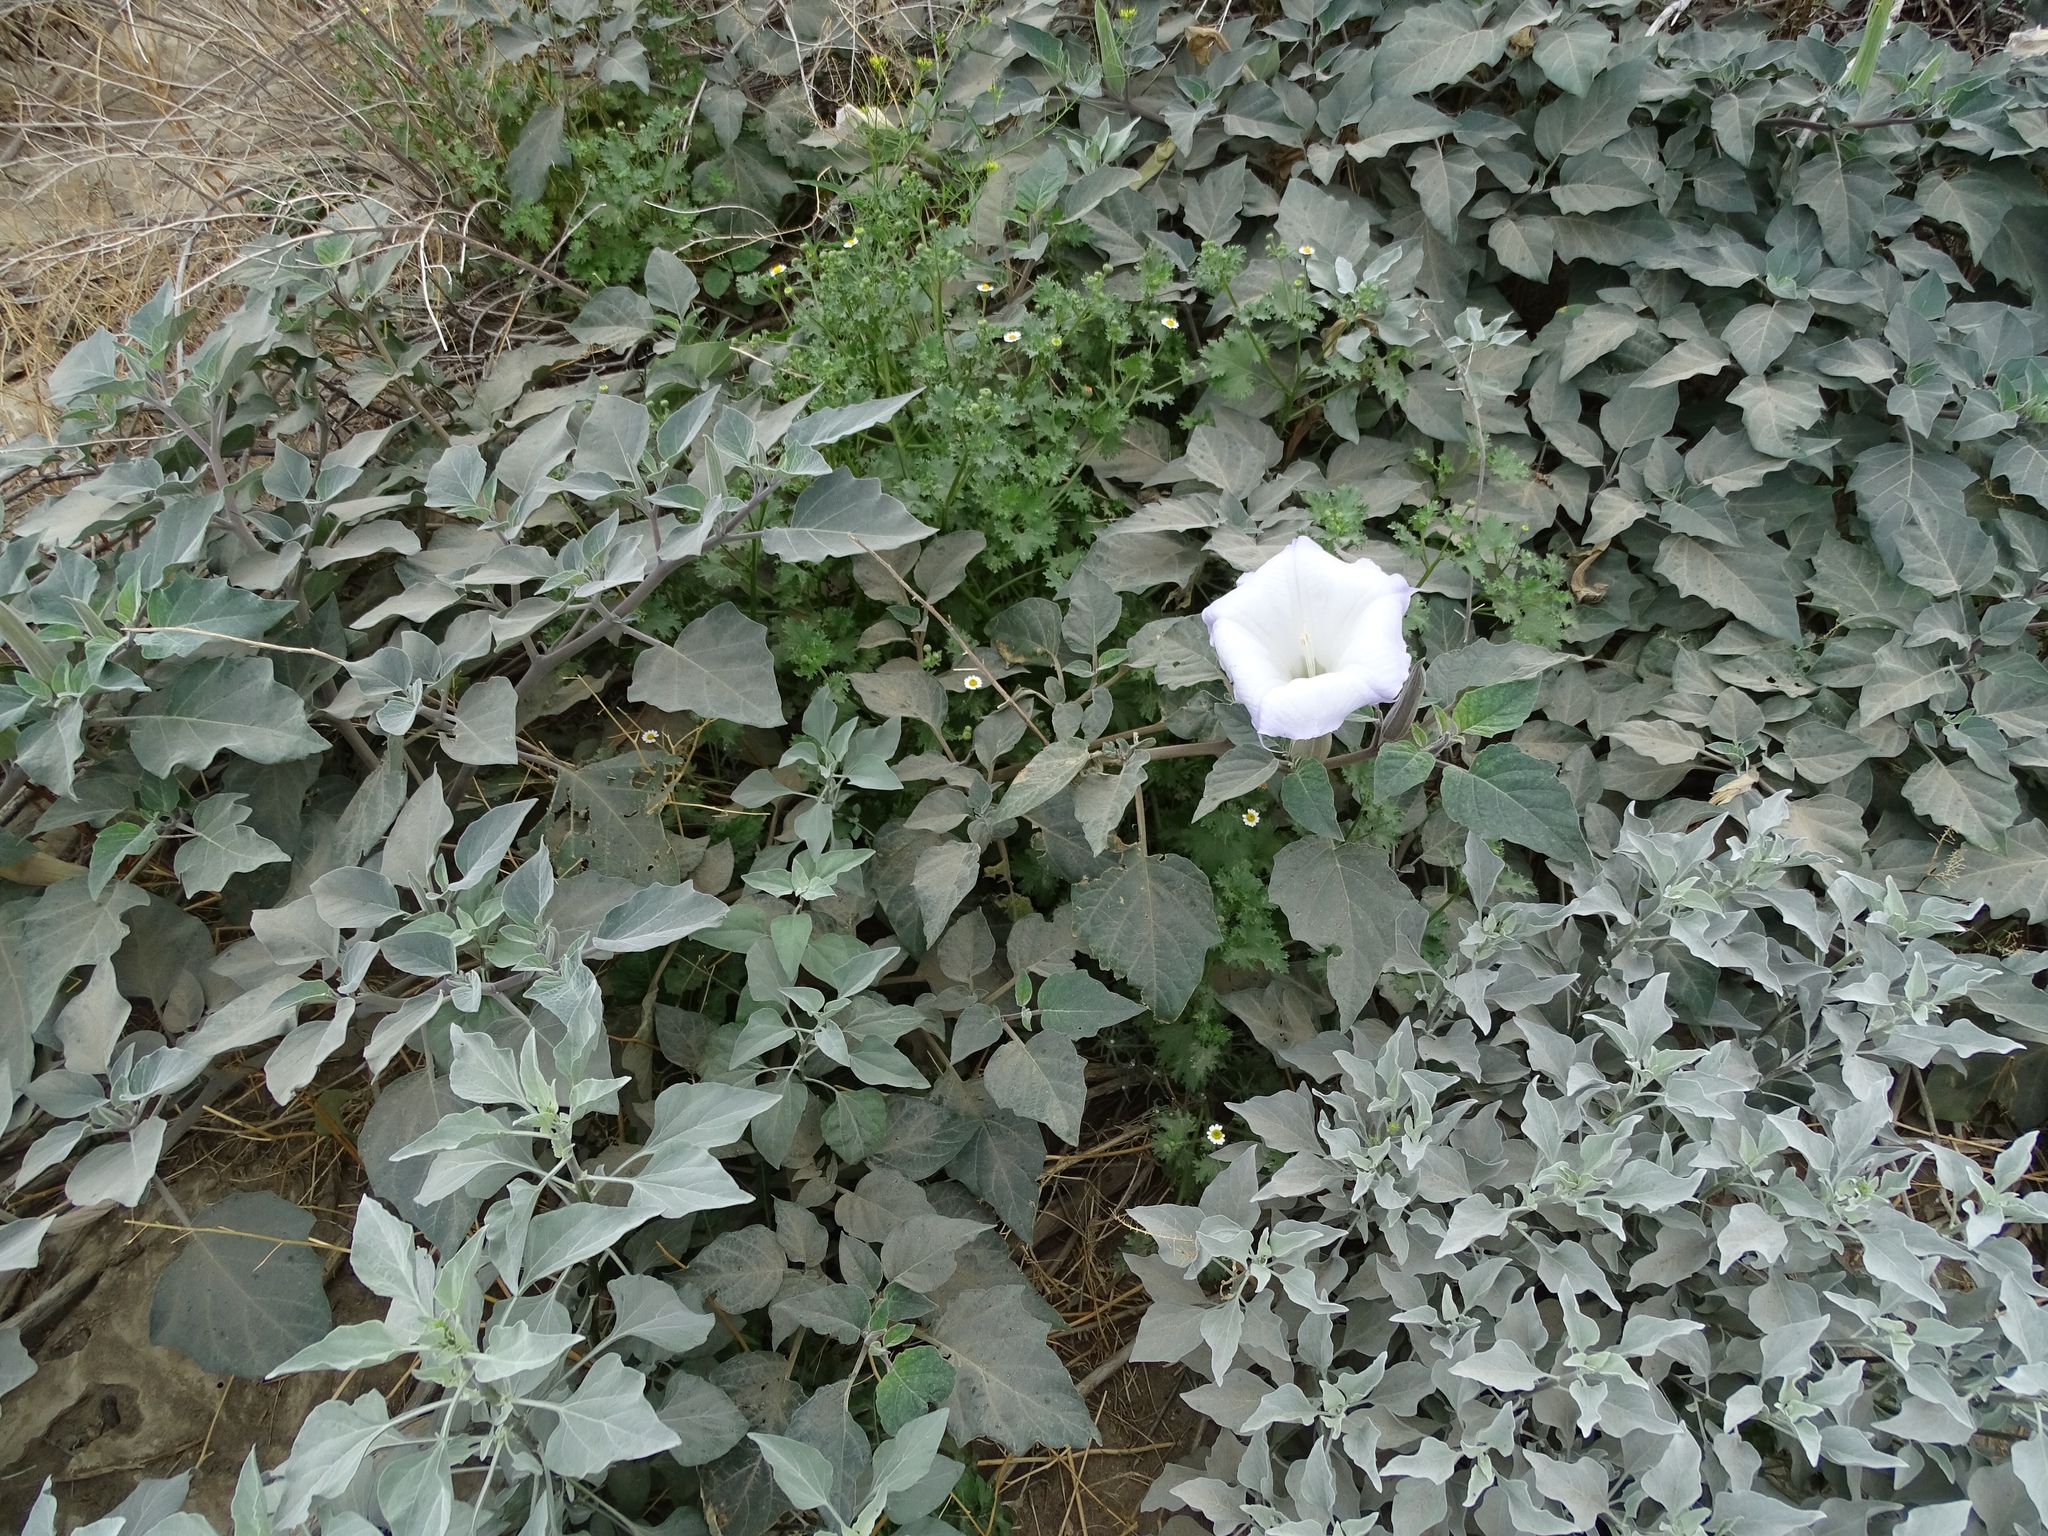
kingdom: Plantae
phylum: Tracheophyta
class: Magnoliopsida
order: Solanales
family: Solanaceae
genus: Datura
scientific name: Datura wrightii
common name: Sacred thorn-apple
